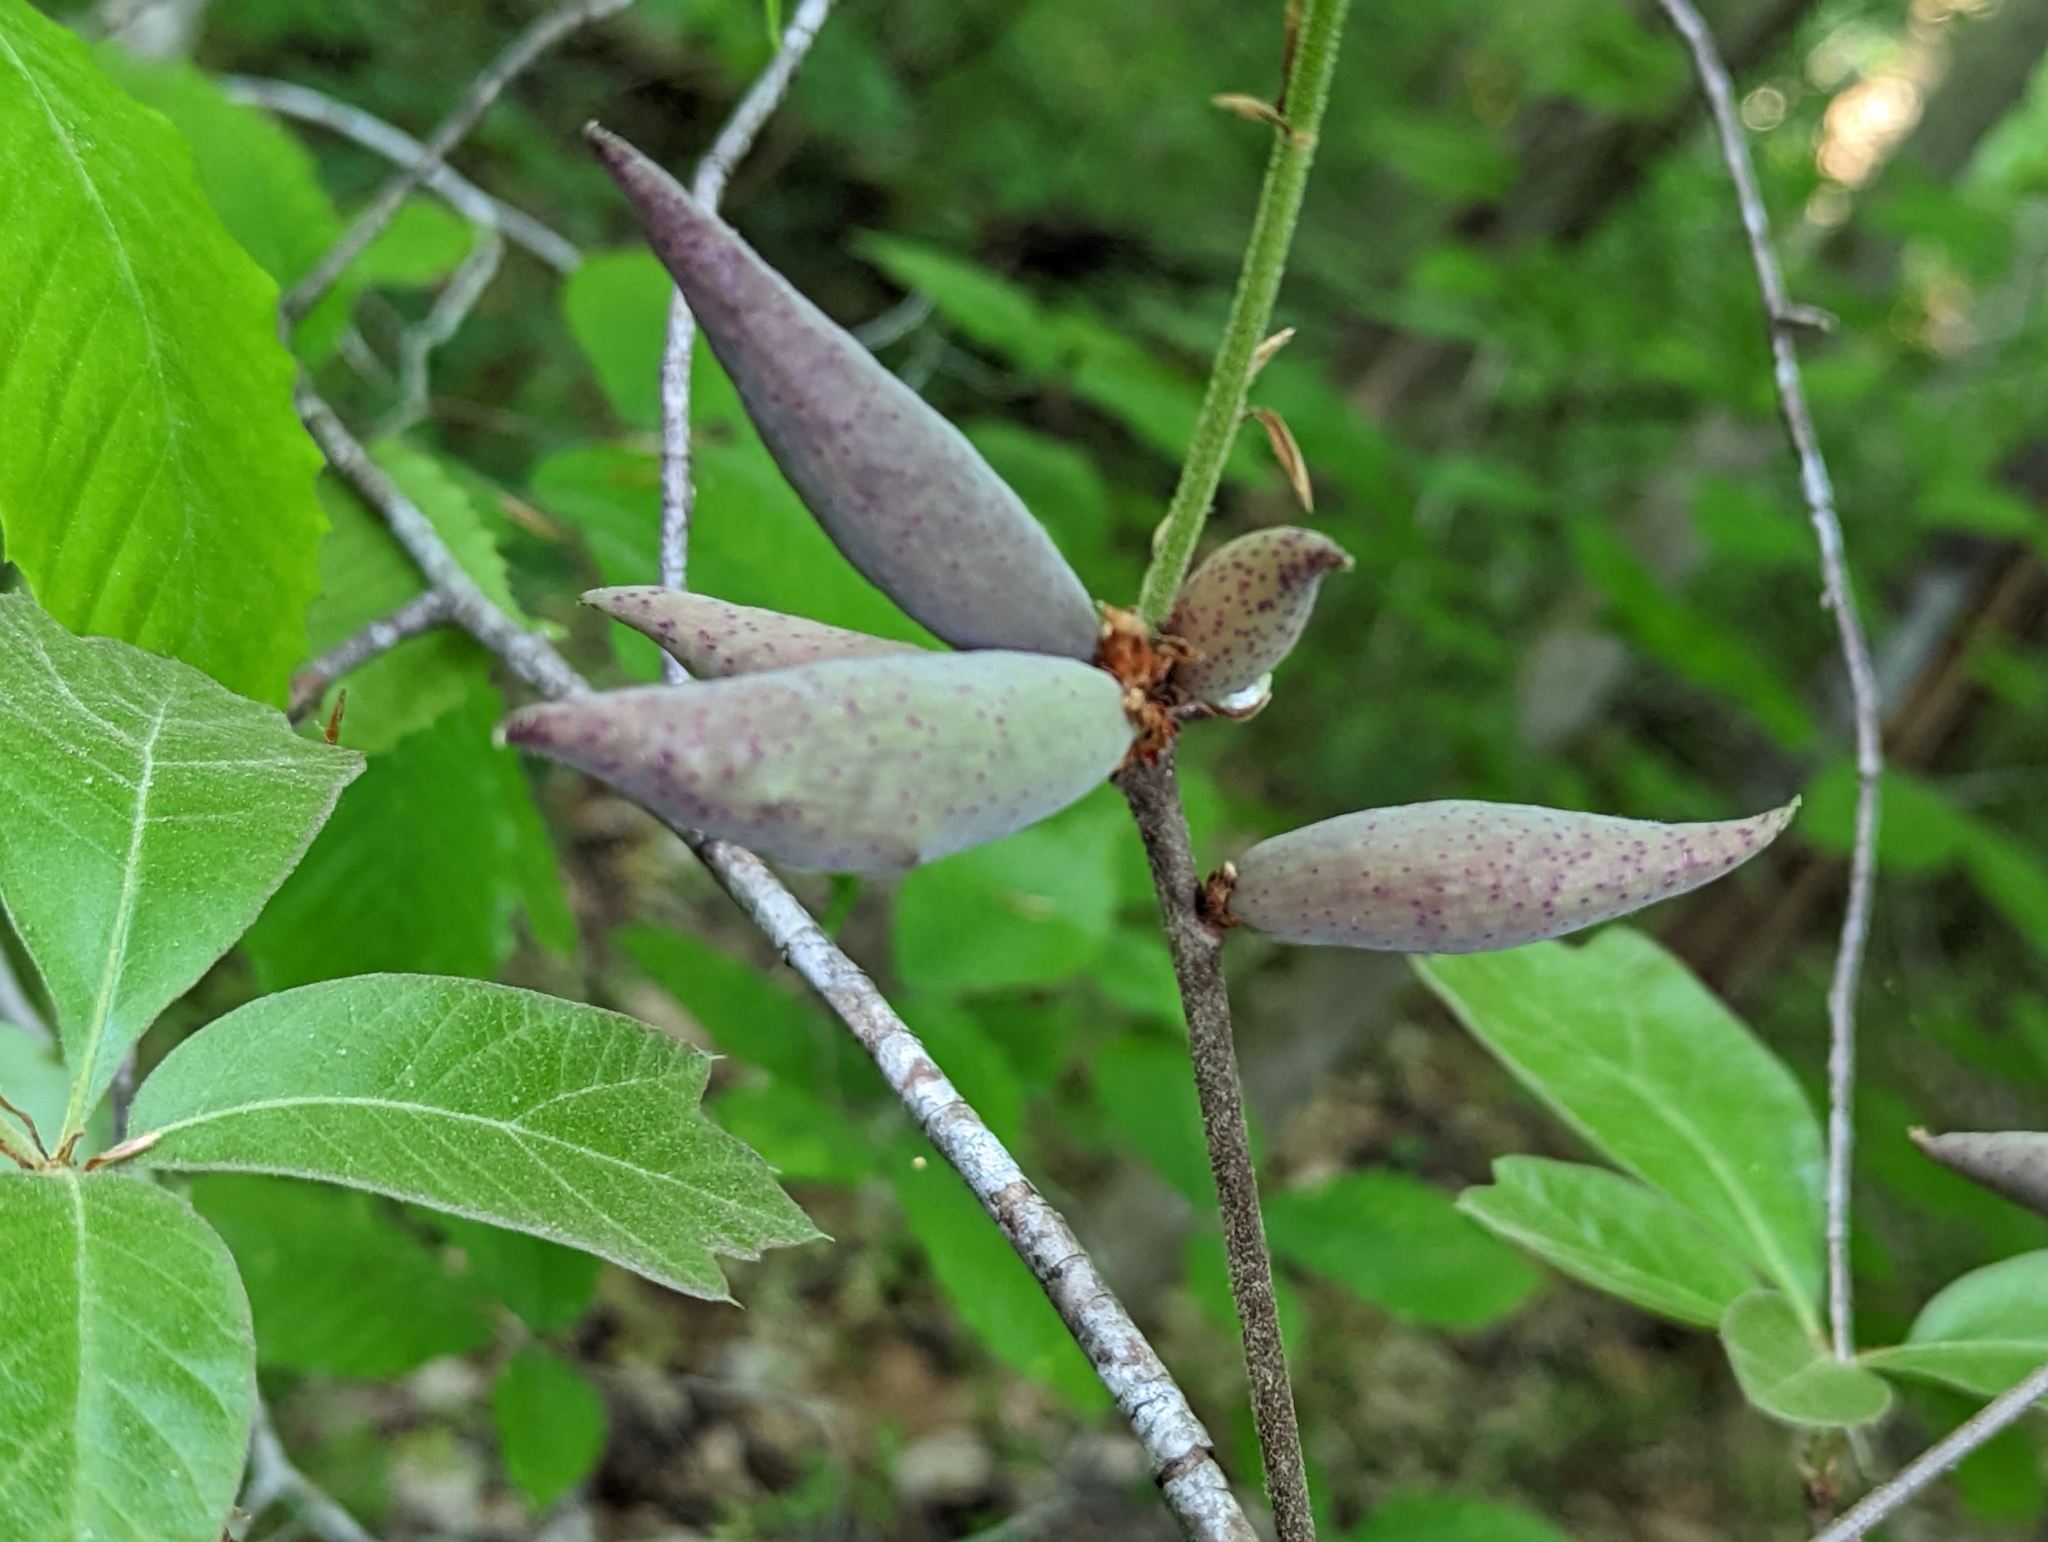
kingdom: Animalia
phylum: Arthropoda
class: Insecta
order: Hymenoptera
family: Cynipidae
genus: Amphibolips
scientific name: Amphibolips
